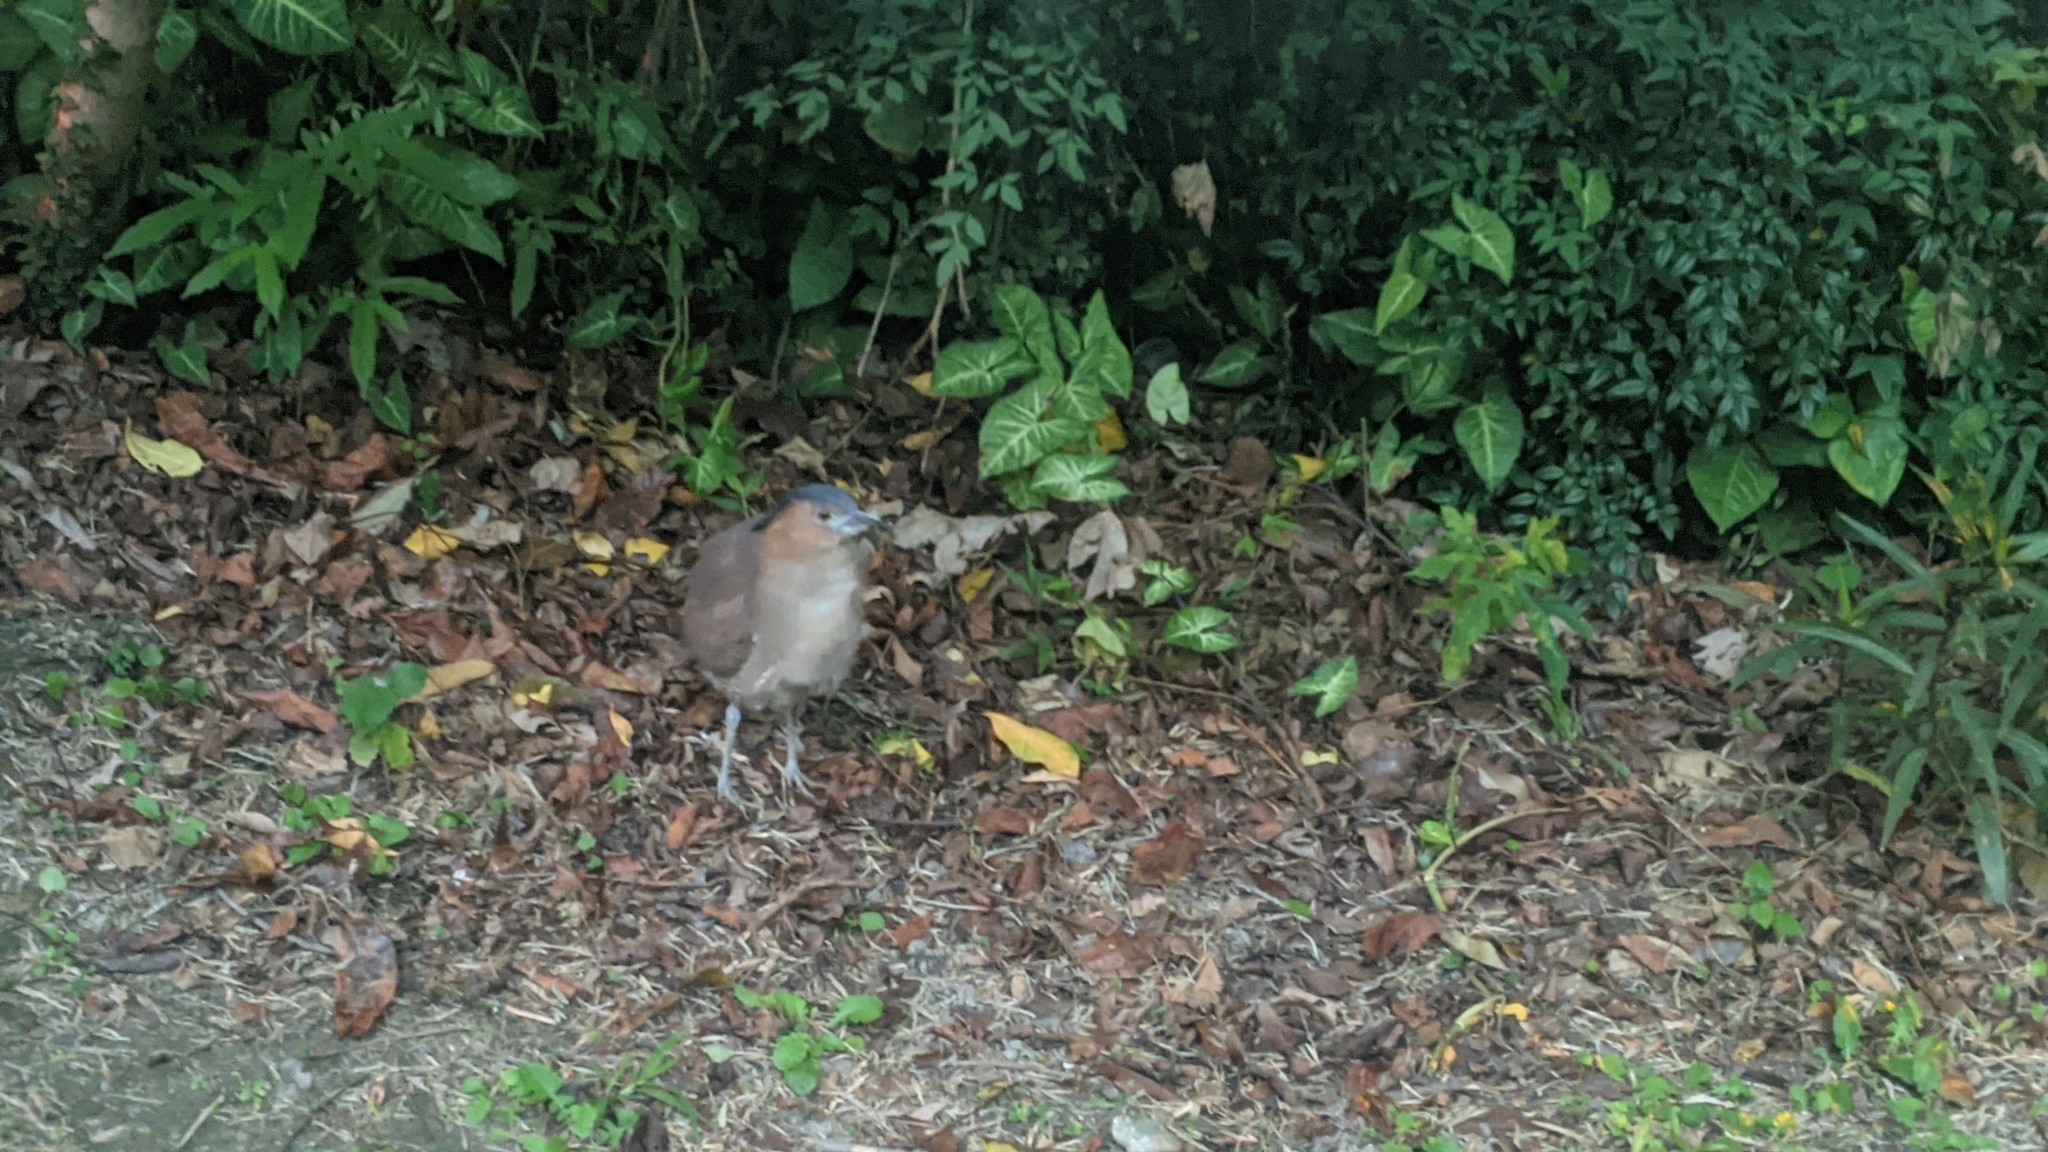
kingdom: Animalia
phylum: Chordata
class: Aves
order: Pelecaniformes
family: Ardeidae
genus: Gorsachius
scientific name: Gorsachius melanolophus
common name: Malayan night heron
